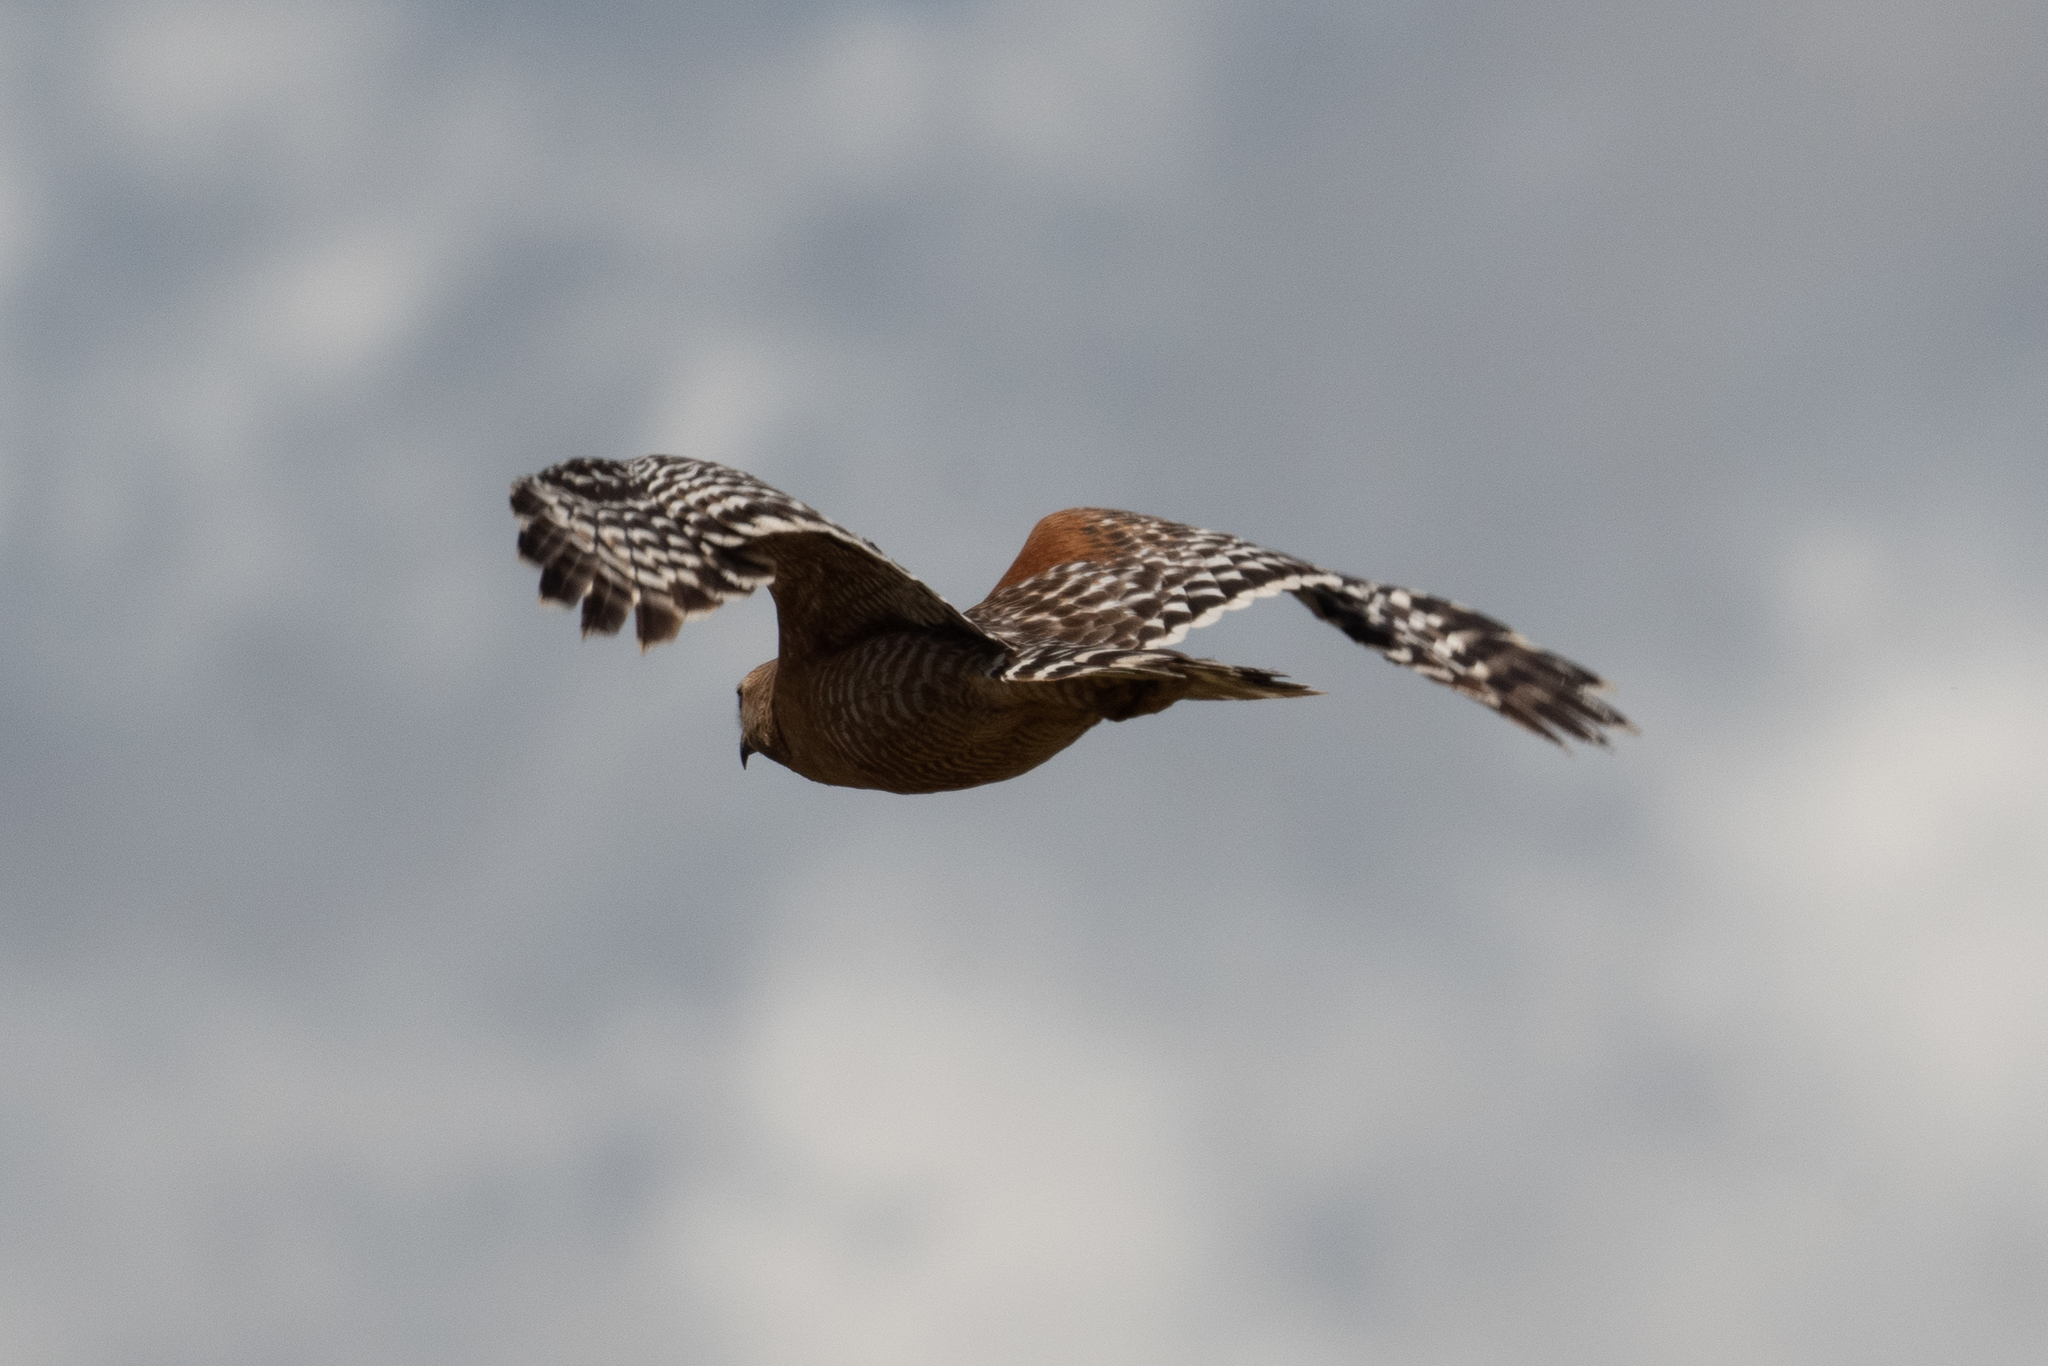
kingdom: Animalia
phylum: Chordata
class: Aves
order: Accipitriformes
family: Accipitridae
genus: Buteo
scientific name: Buteo lineatus
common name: Red-shouldered hawk
